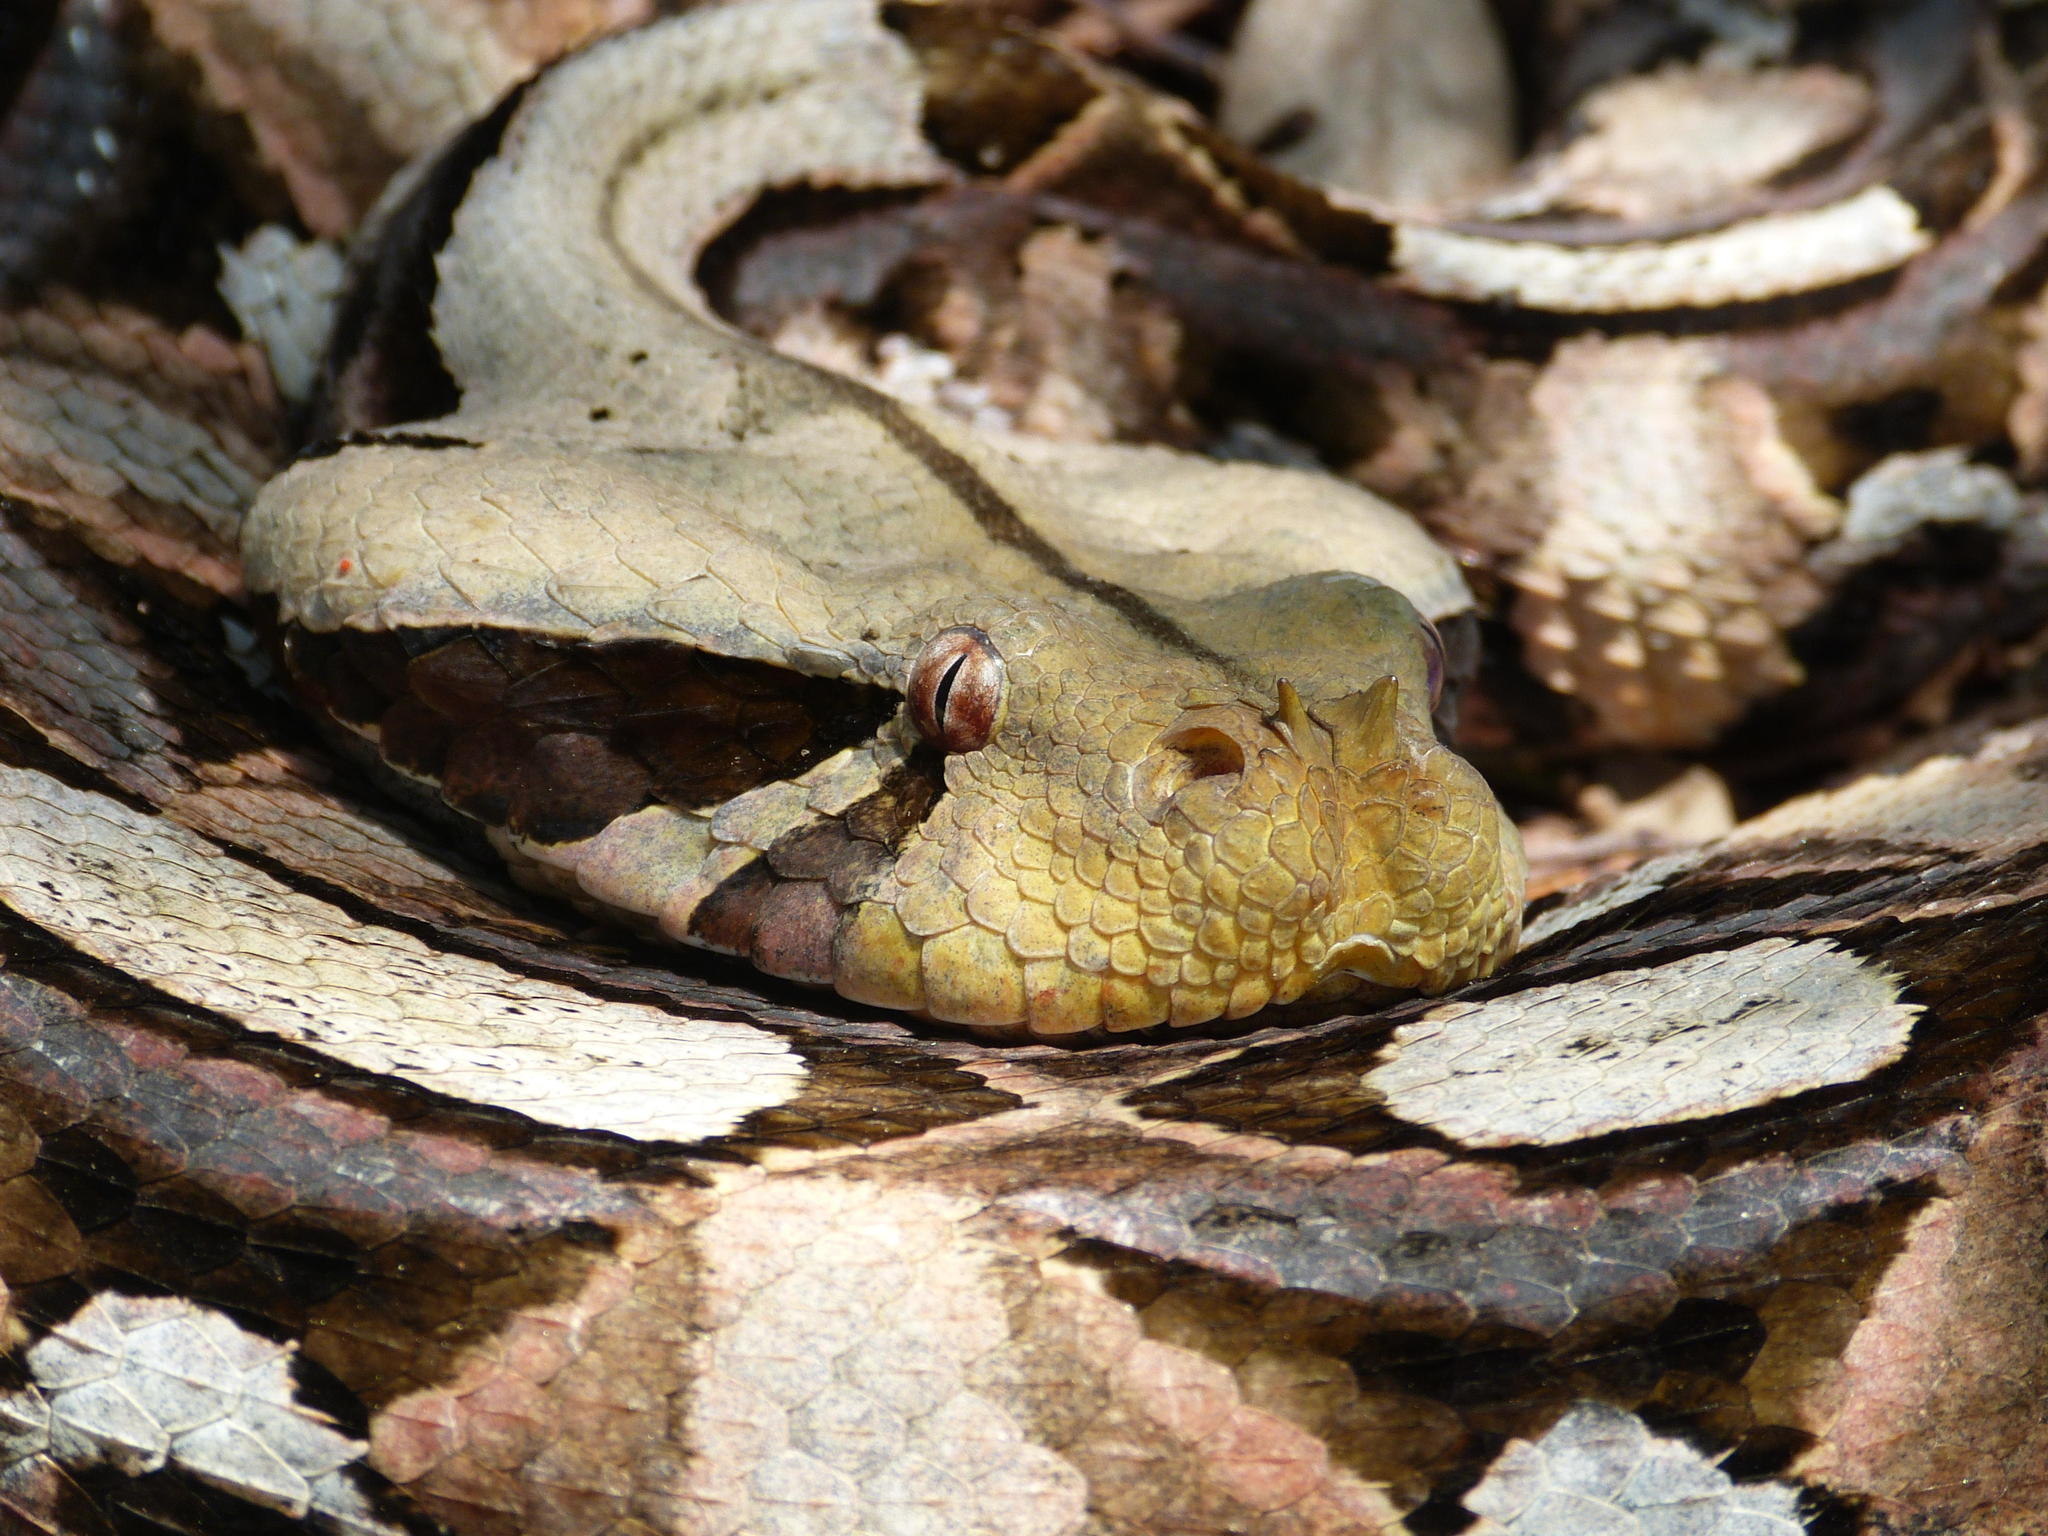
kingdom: Animalia
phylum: Chordata
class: Squamata
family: Viperidae
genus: Bitis
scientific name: Bitis gabonica
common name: Gaboon adder
